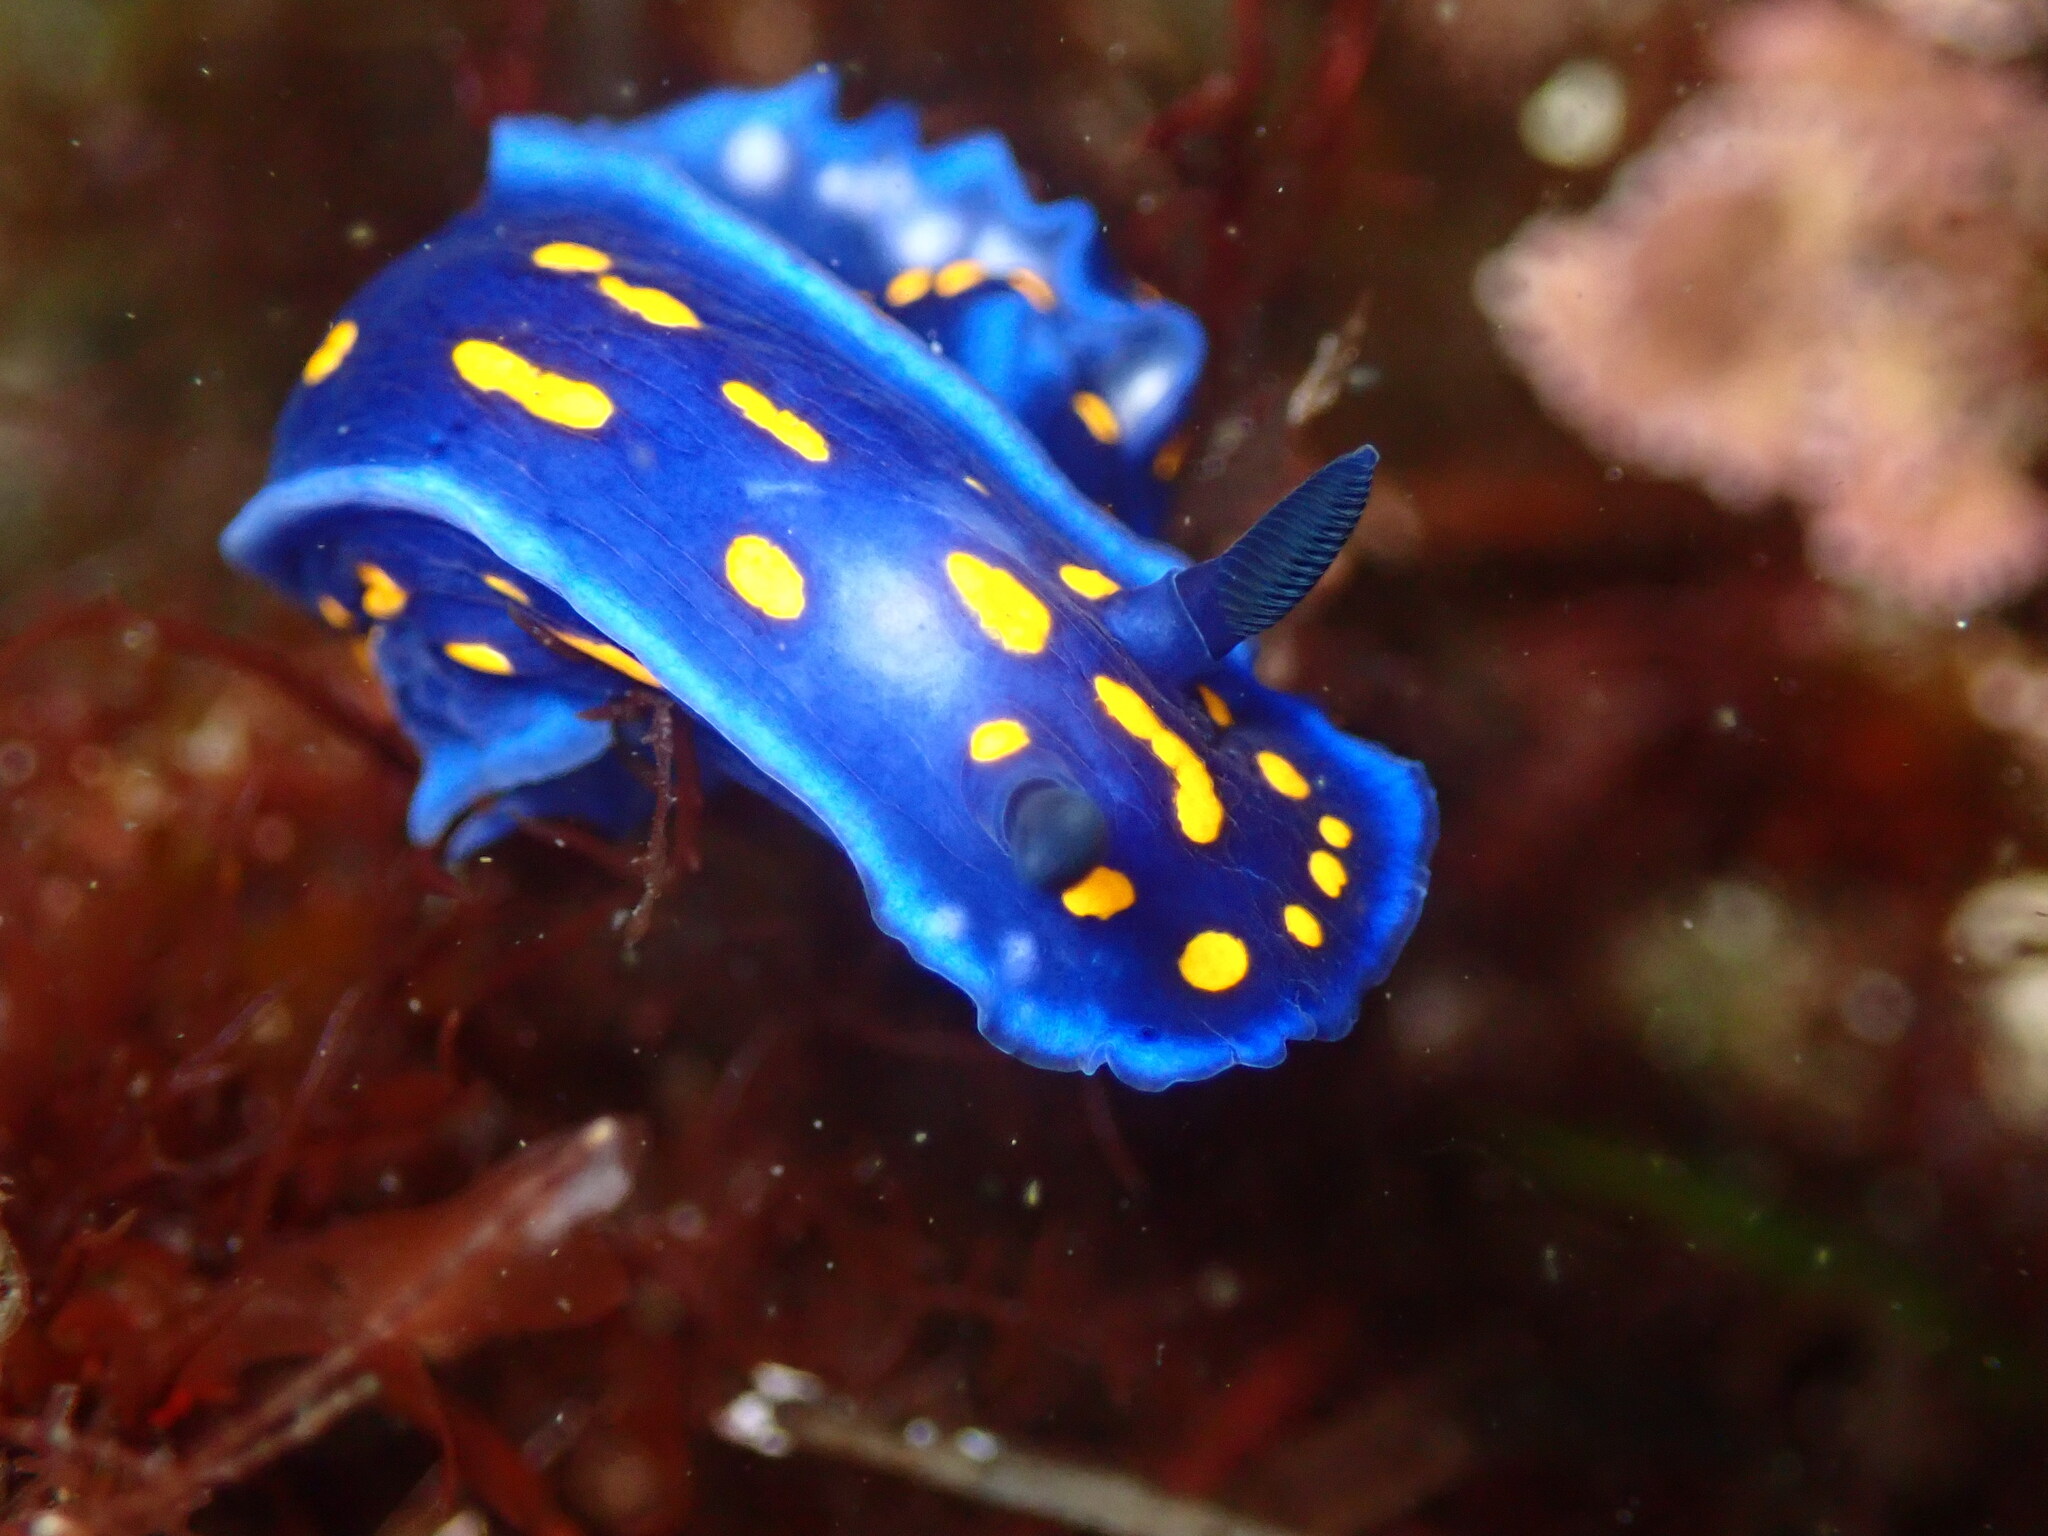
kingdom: Animalia
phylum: Mollusca
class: Gastropoda
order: Nudibranchia
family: Chromodorididae
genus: Felimare
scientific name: Felimare californiensis
